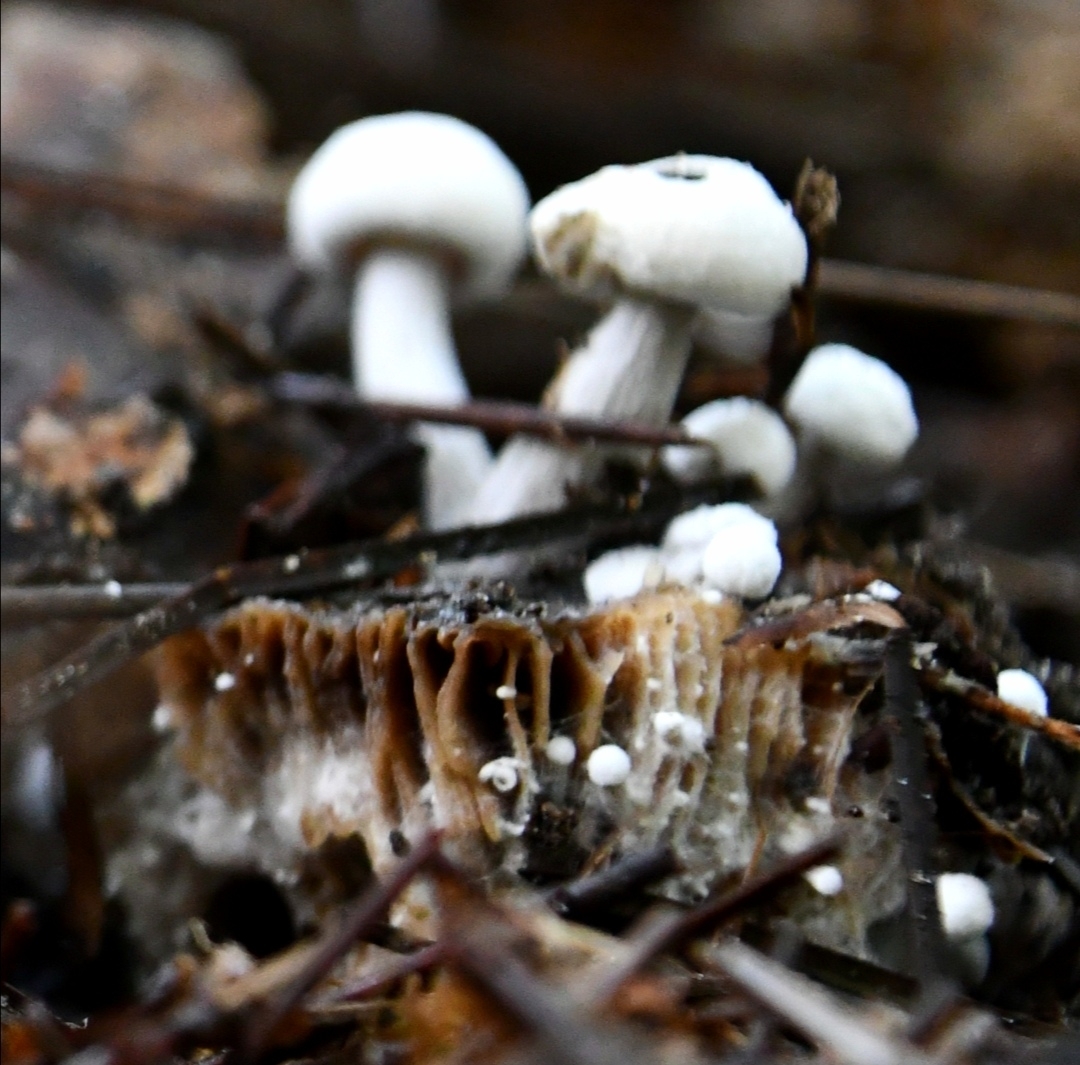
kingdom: Fungi
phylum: Basidiomycota
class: Agaricomycetes
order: Agaricales
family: Lyophyllaceae
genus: Asterophora
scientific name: Asterophora lycoperdoides
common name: Pick-a-back toadstool
